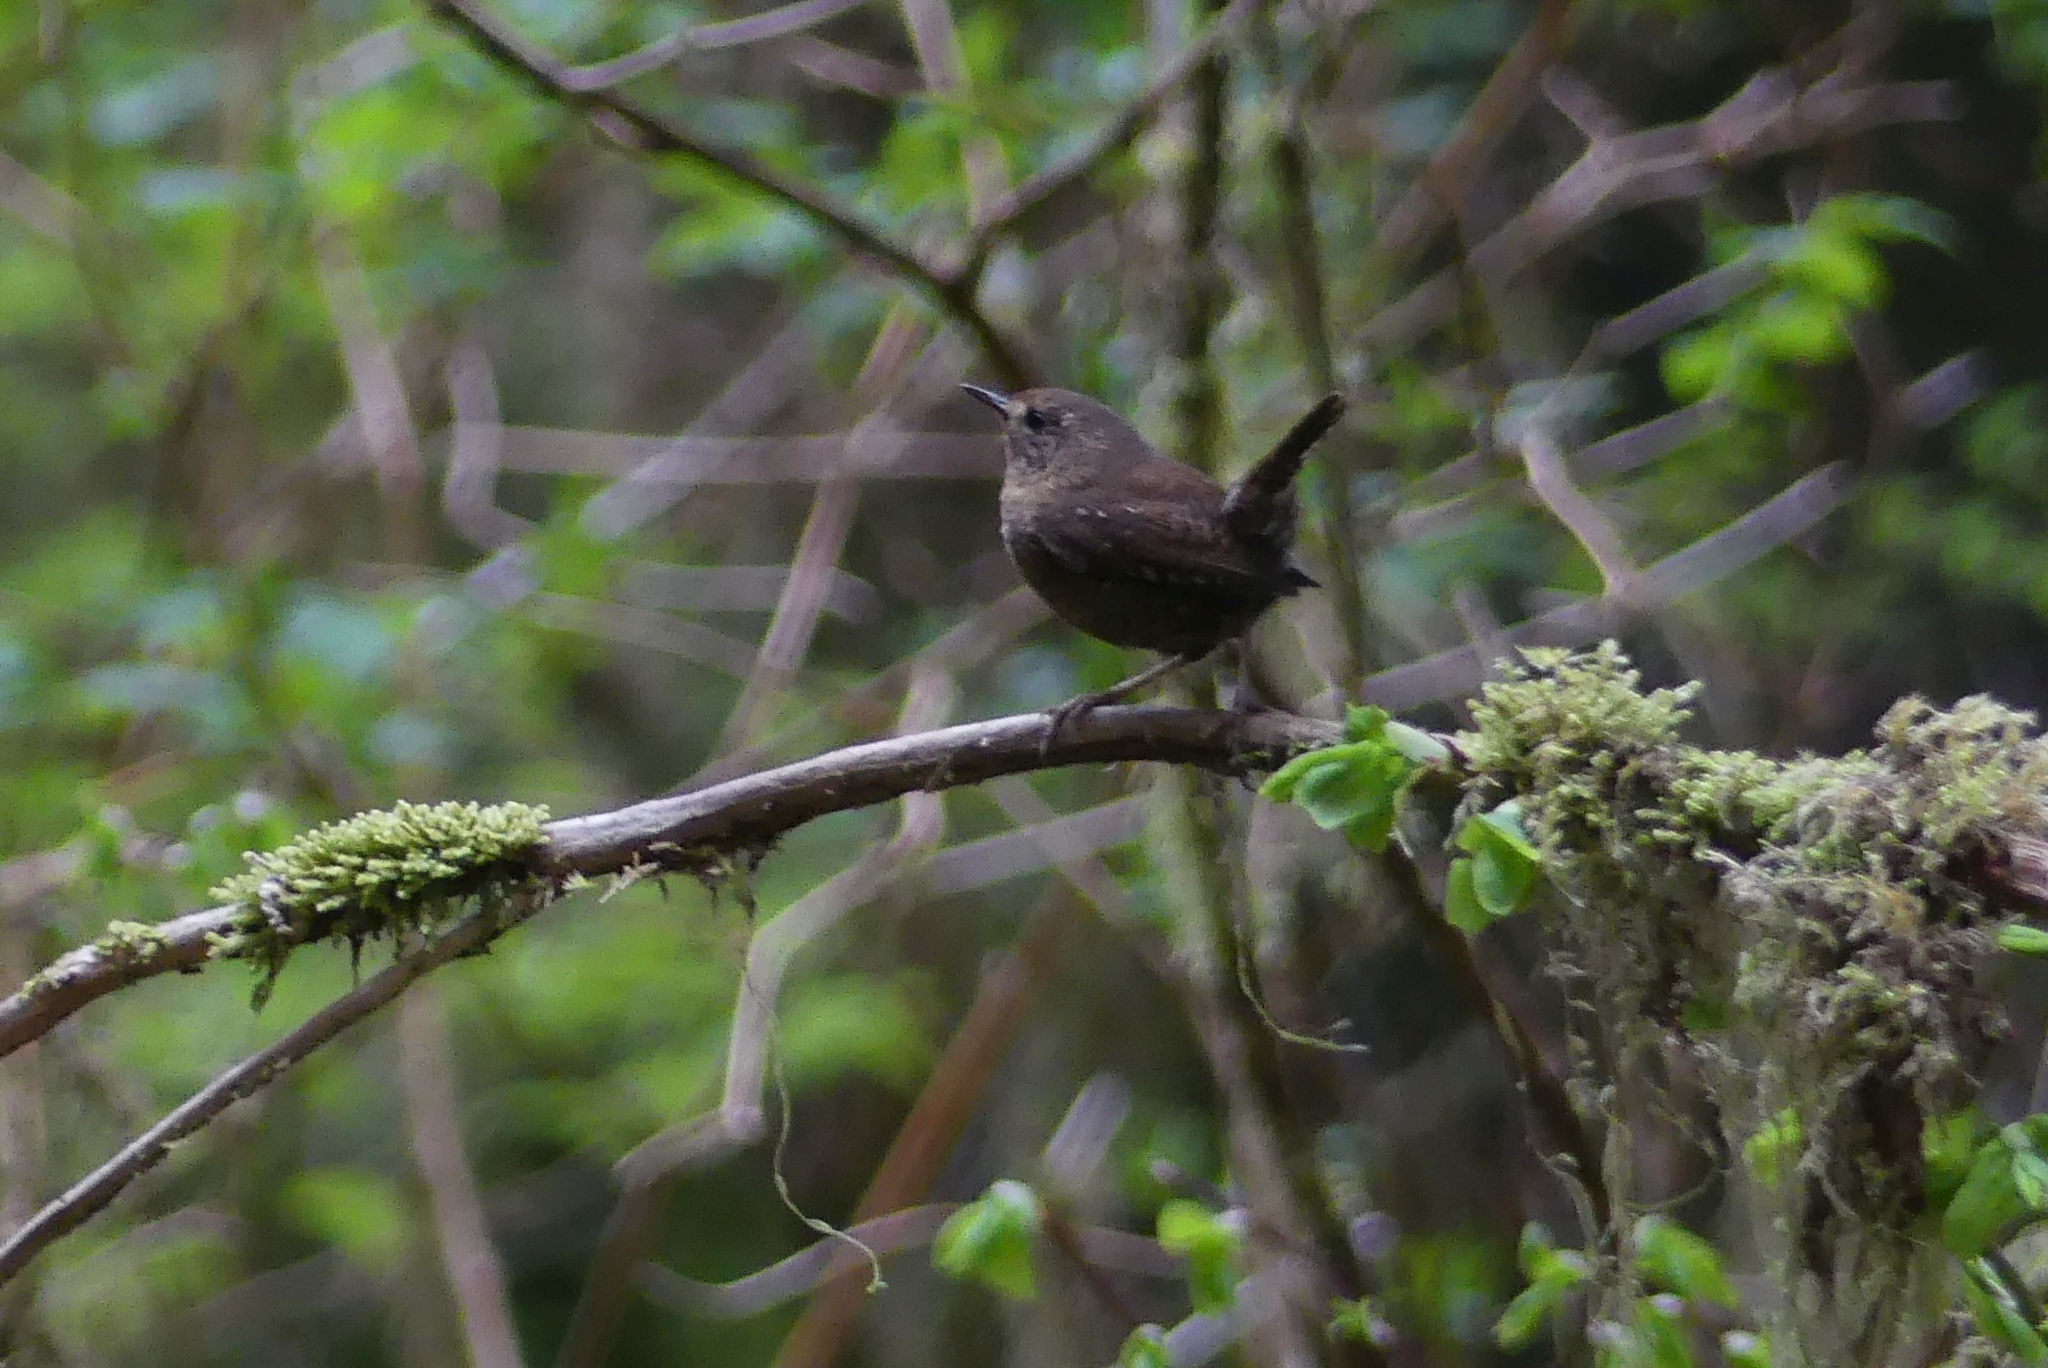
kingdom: Animalia
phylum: Chordata
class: Aves
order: Passeriformes
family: Troglodytidae
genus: Troglodytes
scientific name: Troglodytes pacificus
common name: Pacific wren
